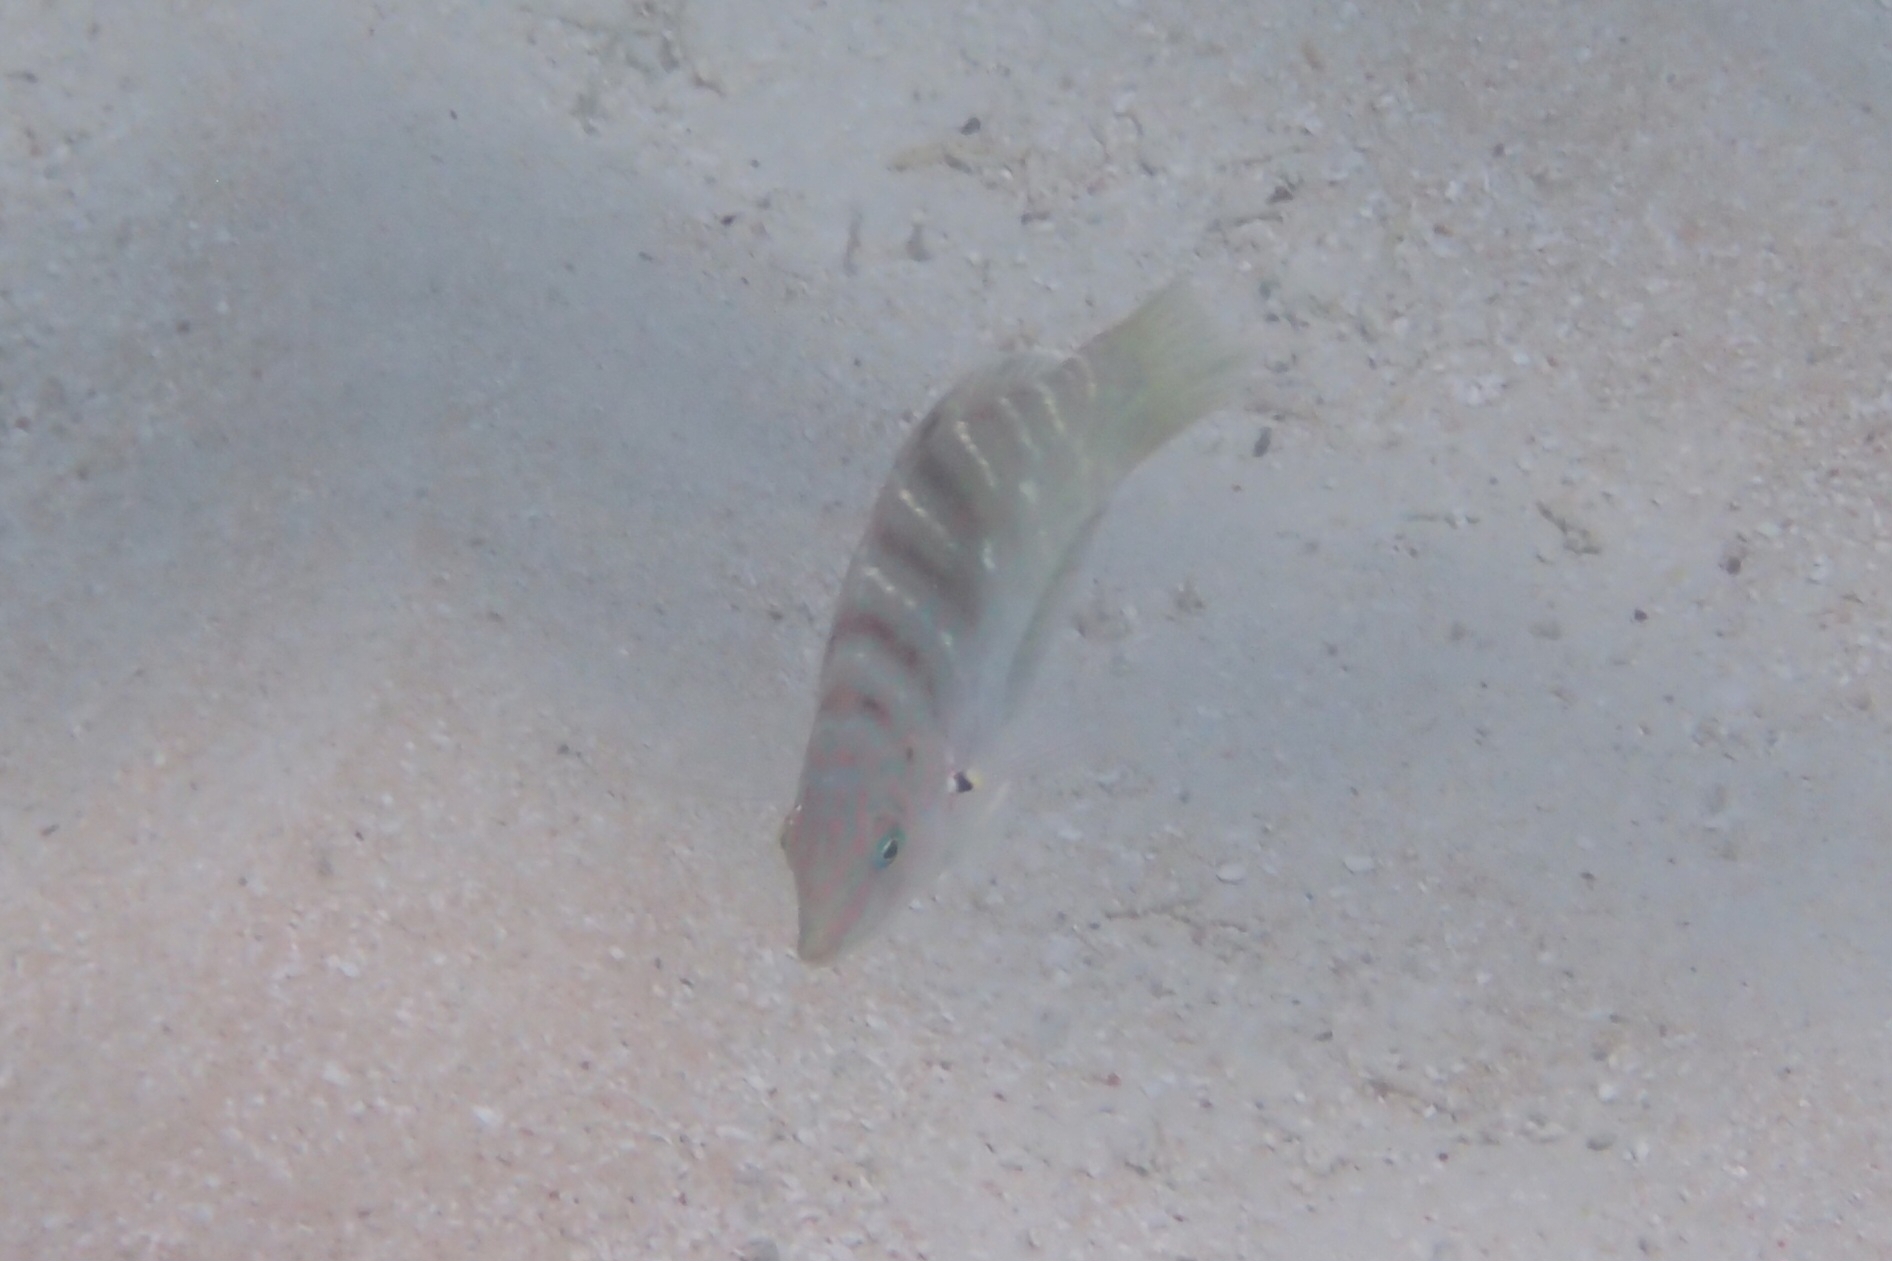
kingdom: Animalia
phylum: Chordata
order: Perciformes
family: Labridae
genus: Coris
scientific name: Coris batuensis
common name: Batu coris
